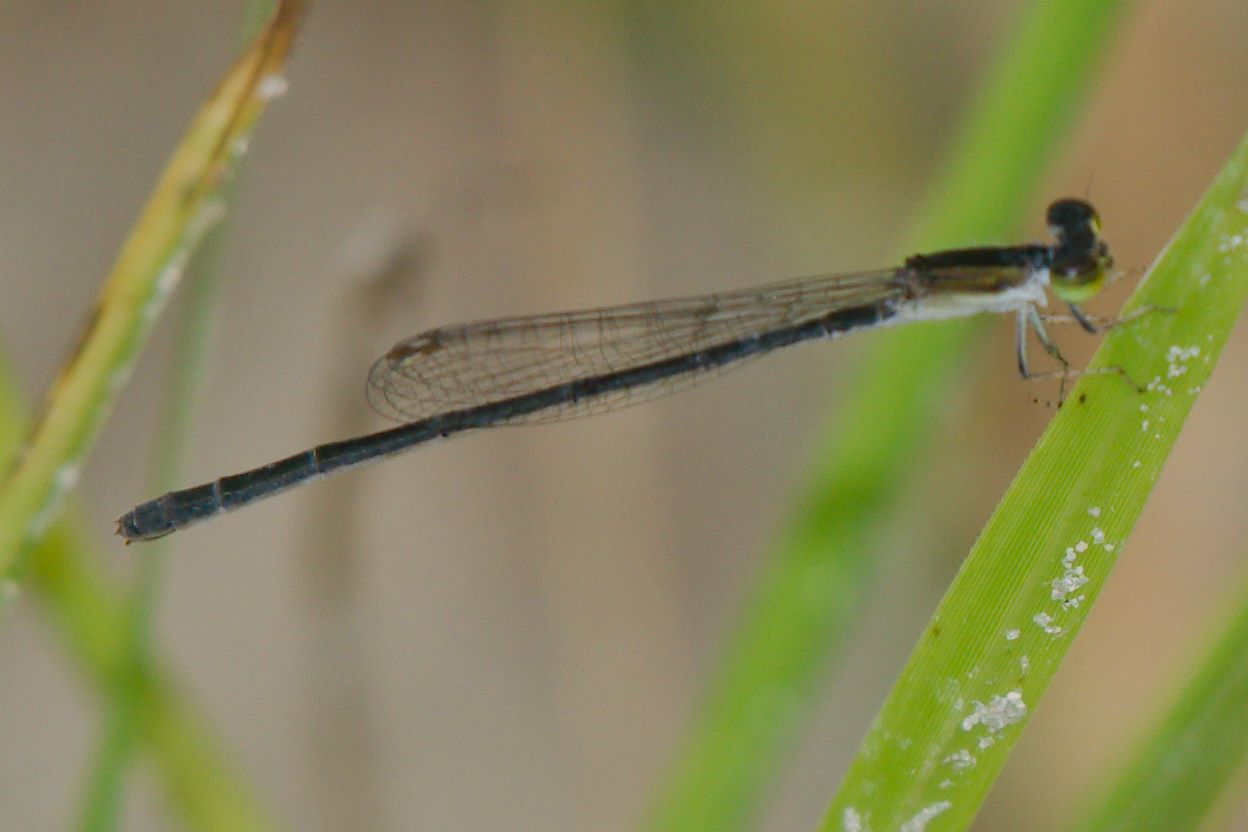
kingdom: Animalia
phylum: Arthropoda
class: Insecta
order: Odonata
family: Coenagrionidae
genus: Ischnura
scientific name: Ischnura hastata
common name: Citrine forktail
